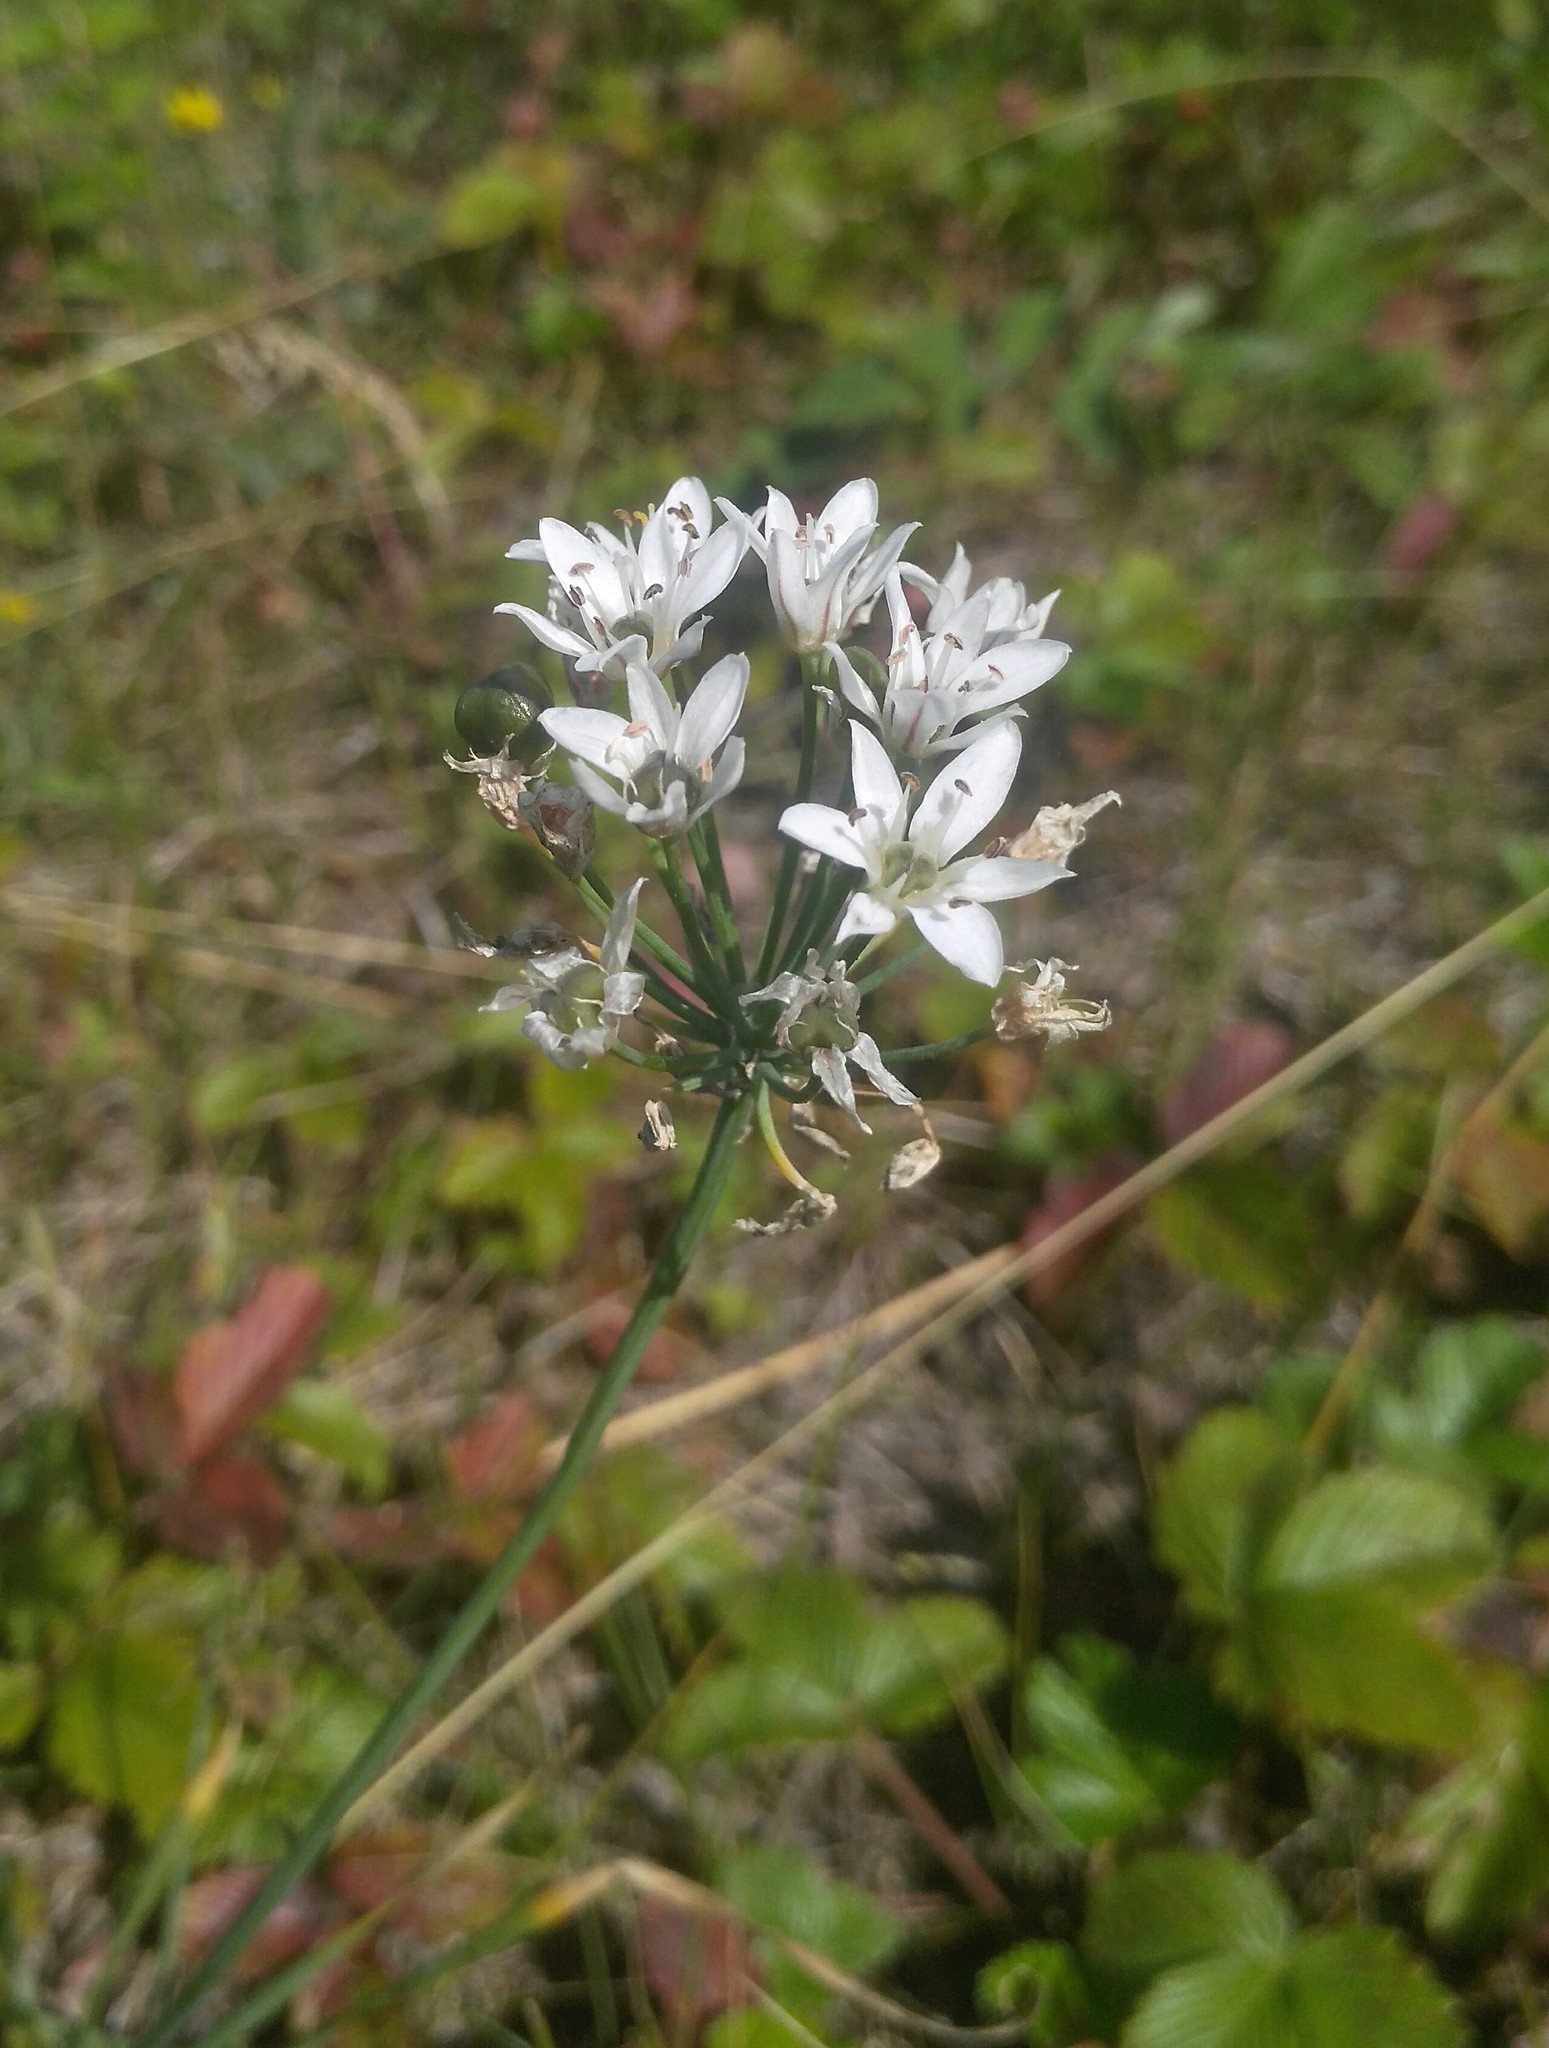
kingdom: Plantae
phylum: Tracheophyta
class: Liliopsida
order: Asparagales
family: Amaryllidaceae
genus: Allium
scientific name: Allium ramosum
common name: Fragrant garlic
